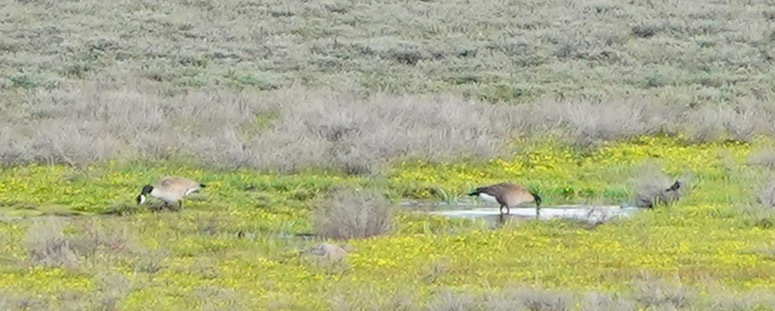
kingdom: Animalia
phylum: Chordata
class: Aves
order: Anseriformes
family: Anatidae
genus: Branta
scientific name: Branta canadensis
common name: Canada goose
